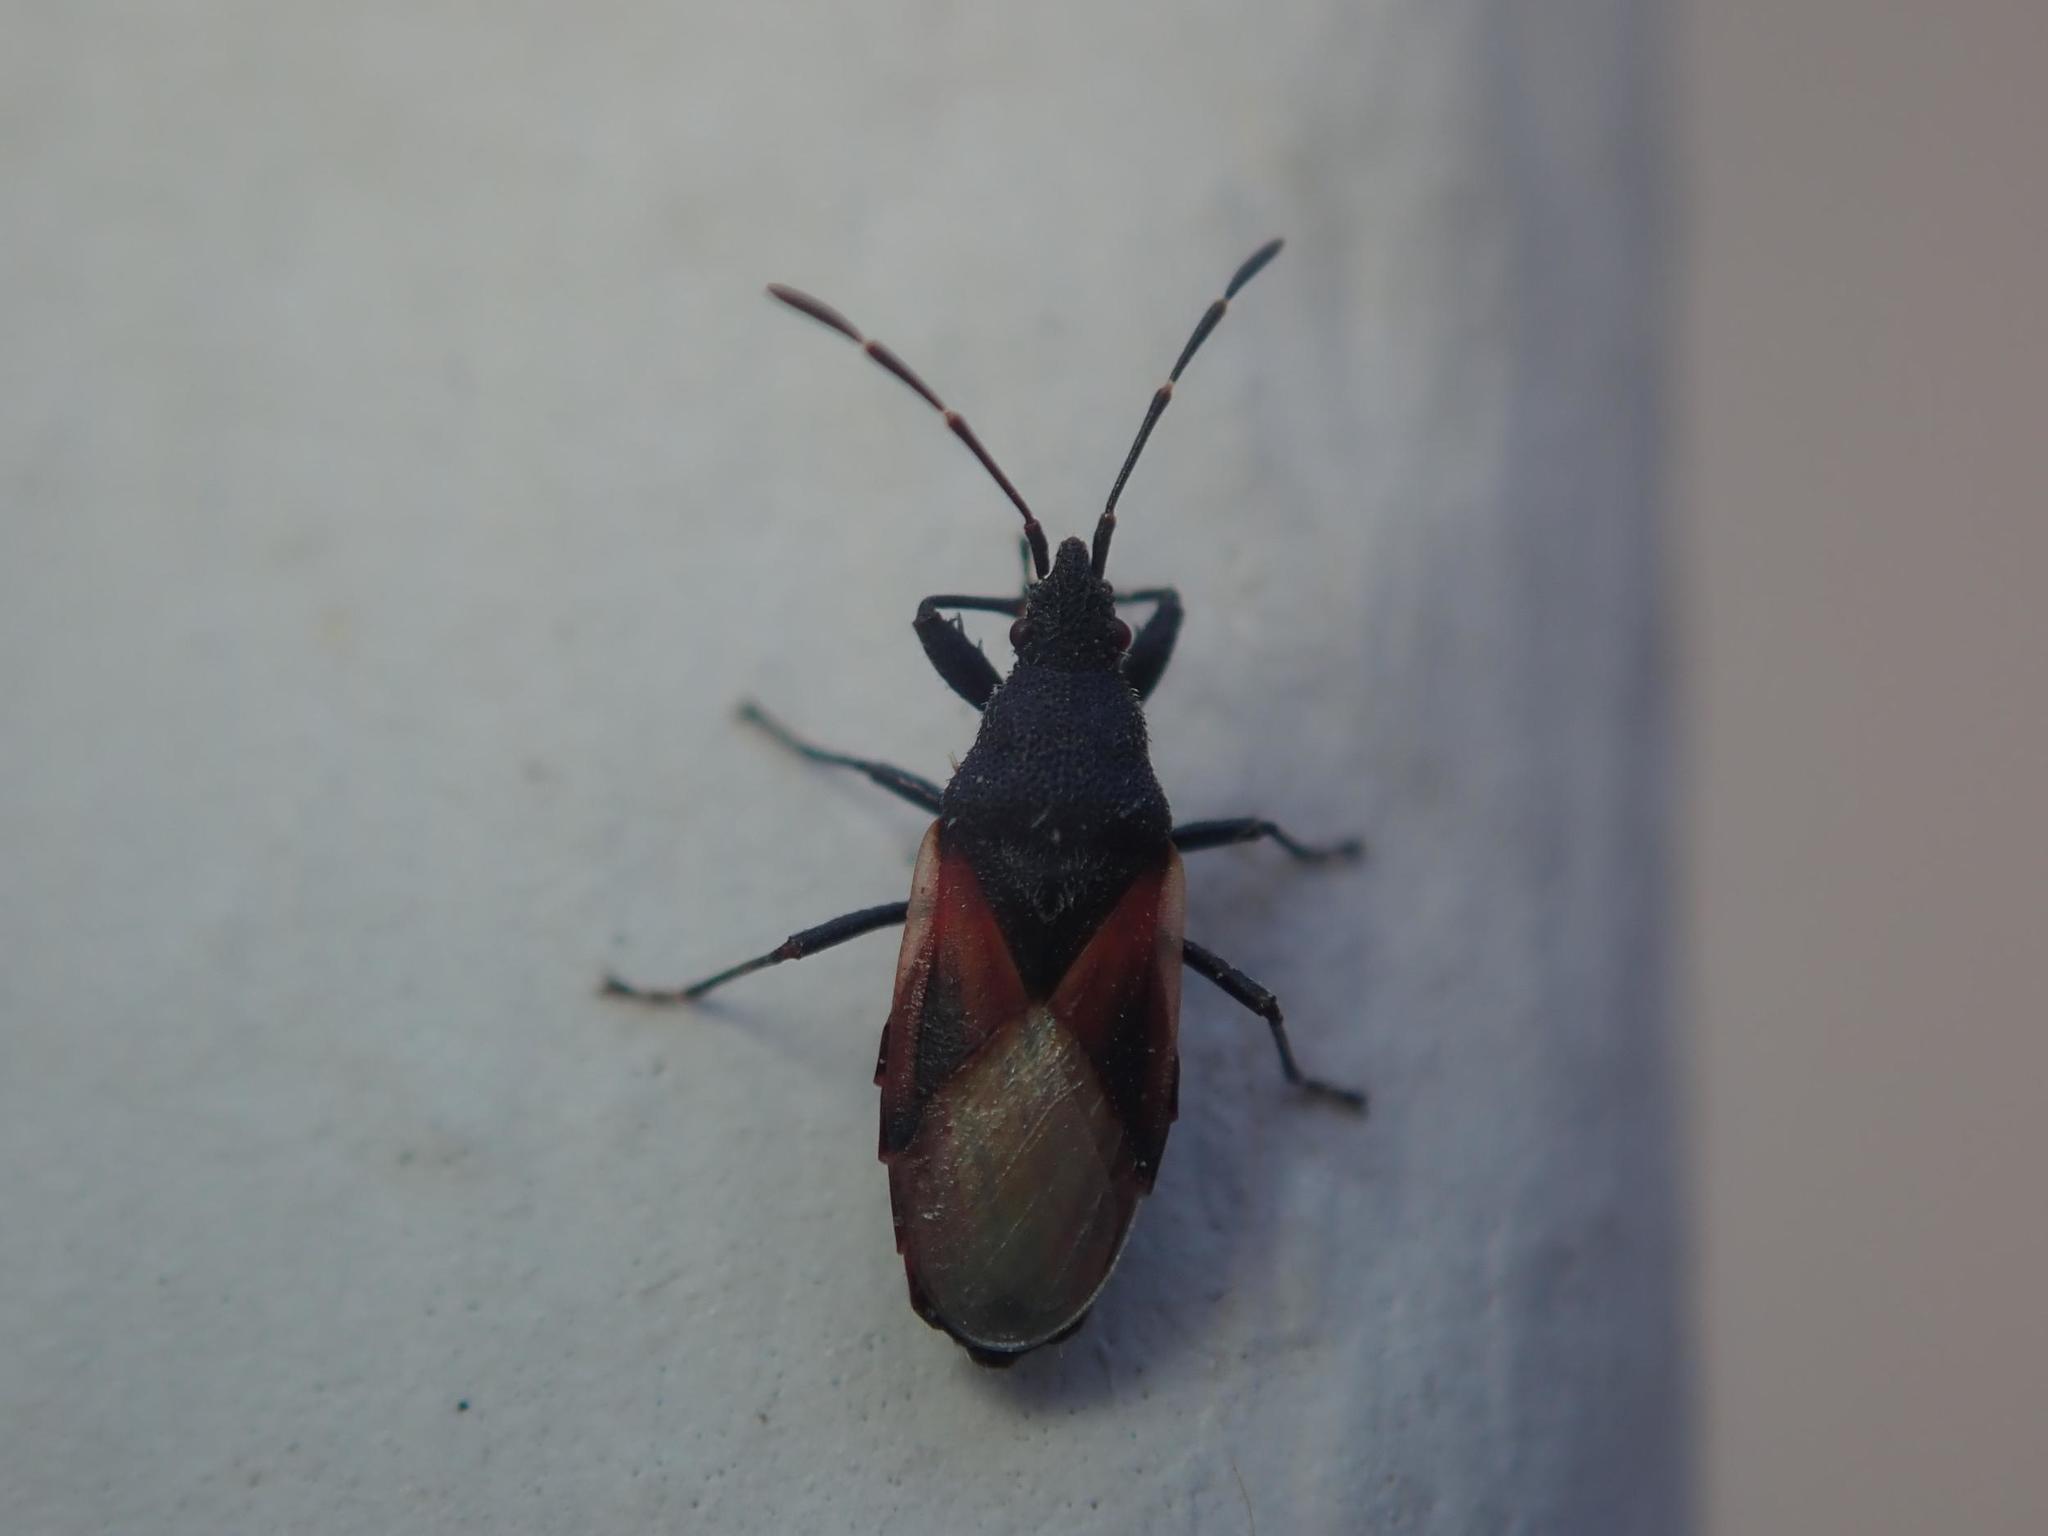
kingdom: Animalia
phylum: Arthropoda
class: Insecta
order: Hemiptera
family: Oxycarenidae
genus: Oxycarenus
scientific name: Oxycarenus lavaterae
